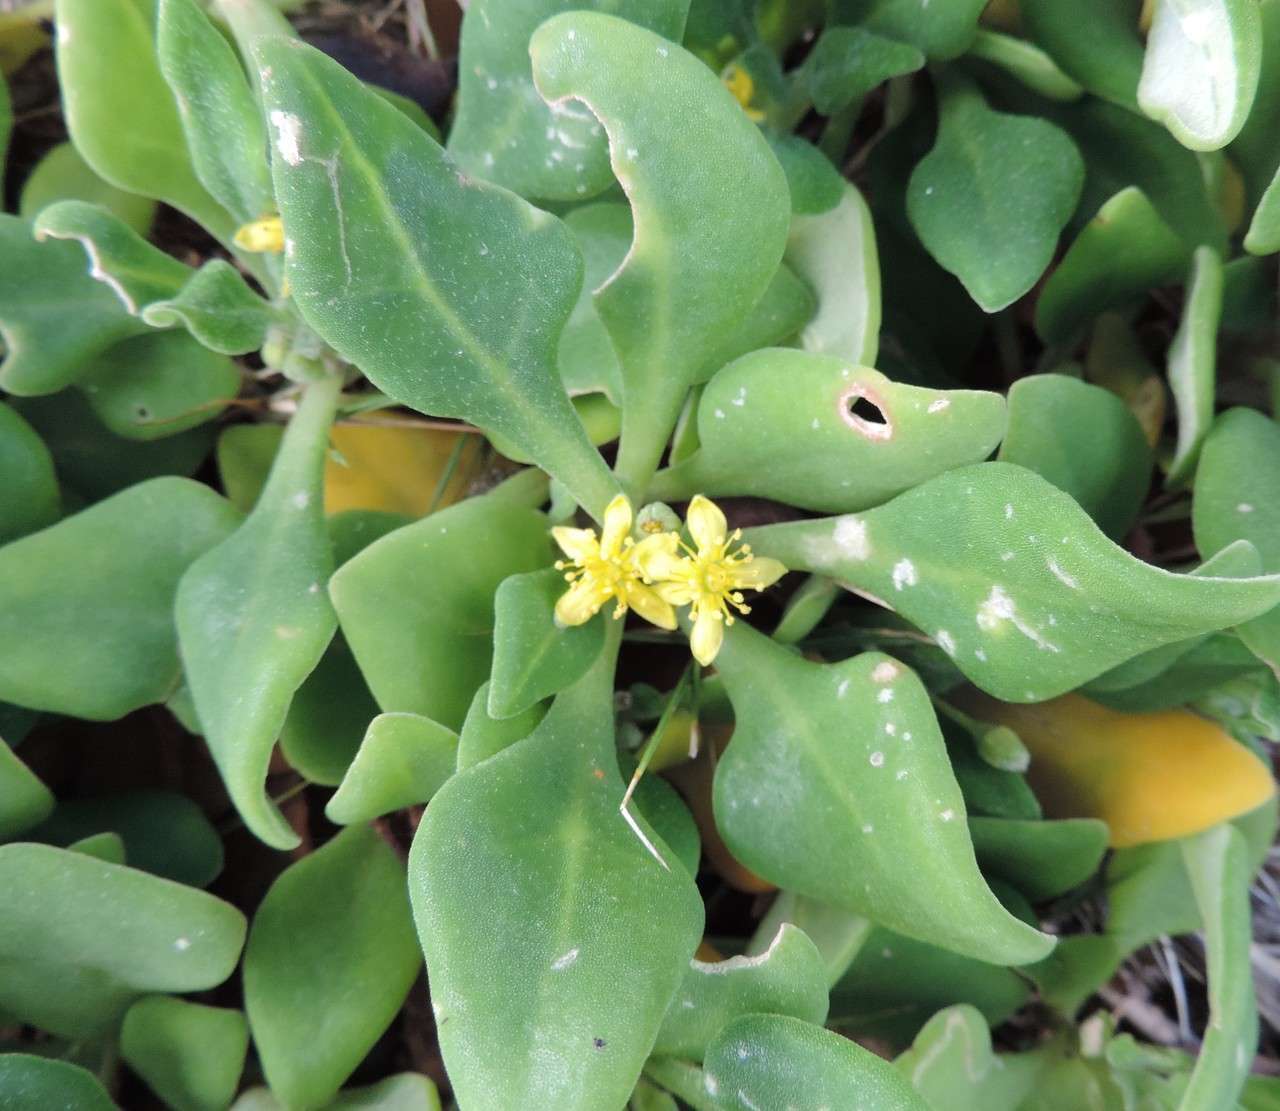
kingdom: Plantae
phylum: Tracheophyta
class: Magnoliopsida
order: Caryophyllales
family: Aizoaceae
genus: Tetragonia
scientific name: Tetragonia implexicoma
